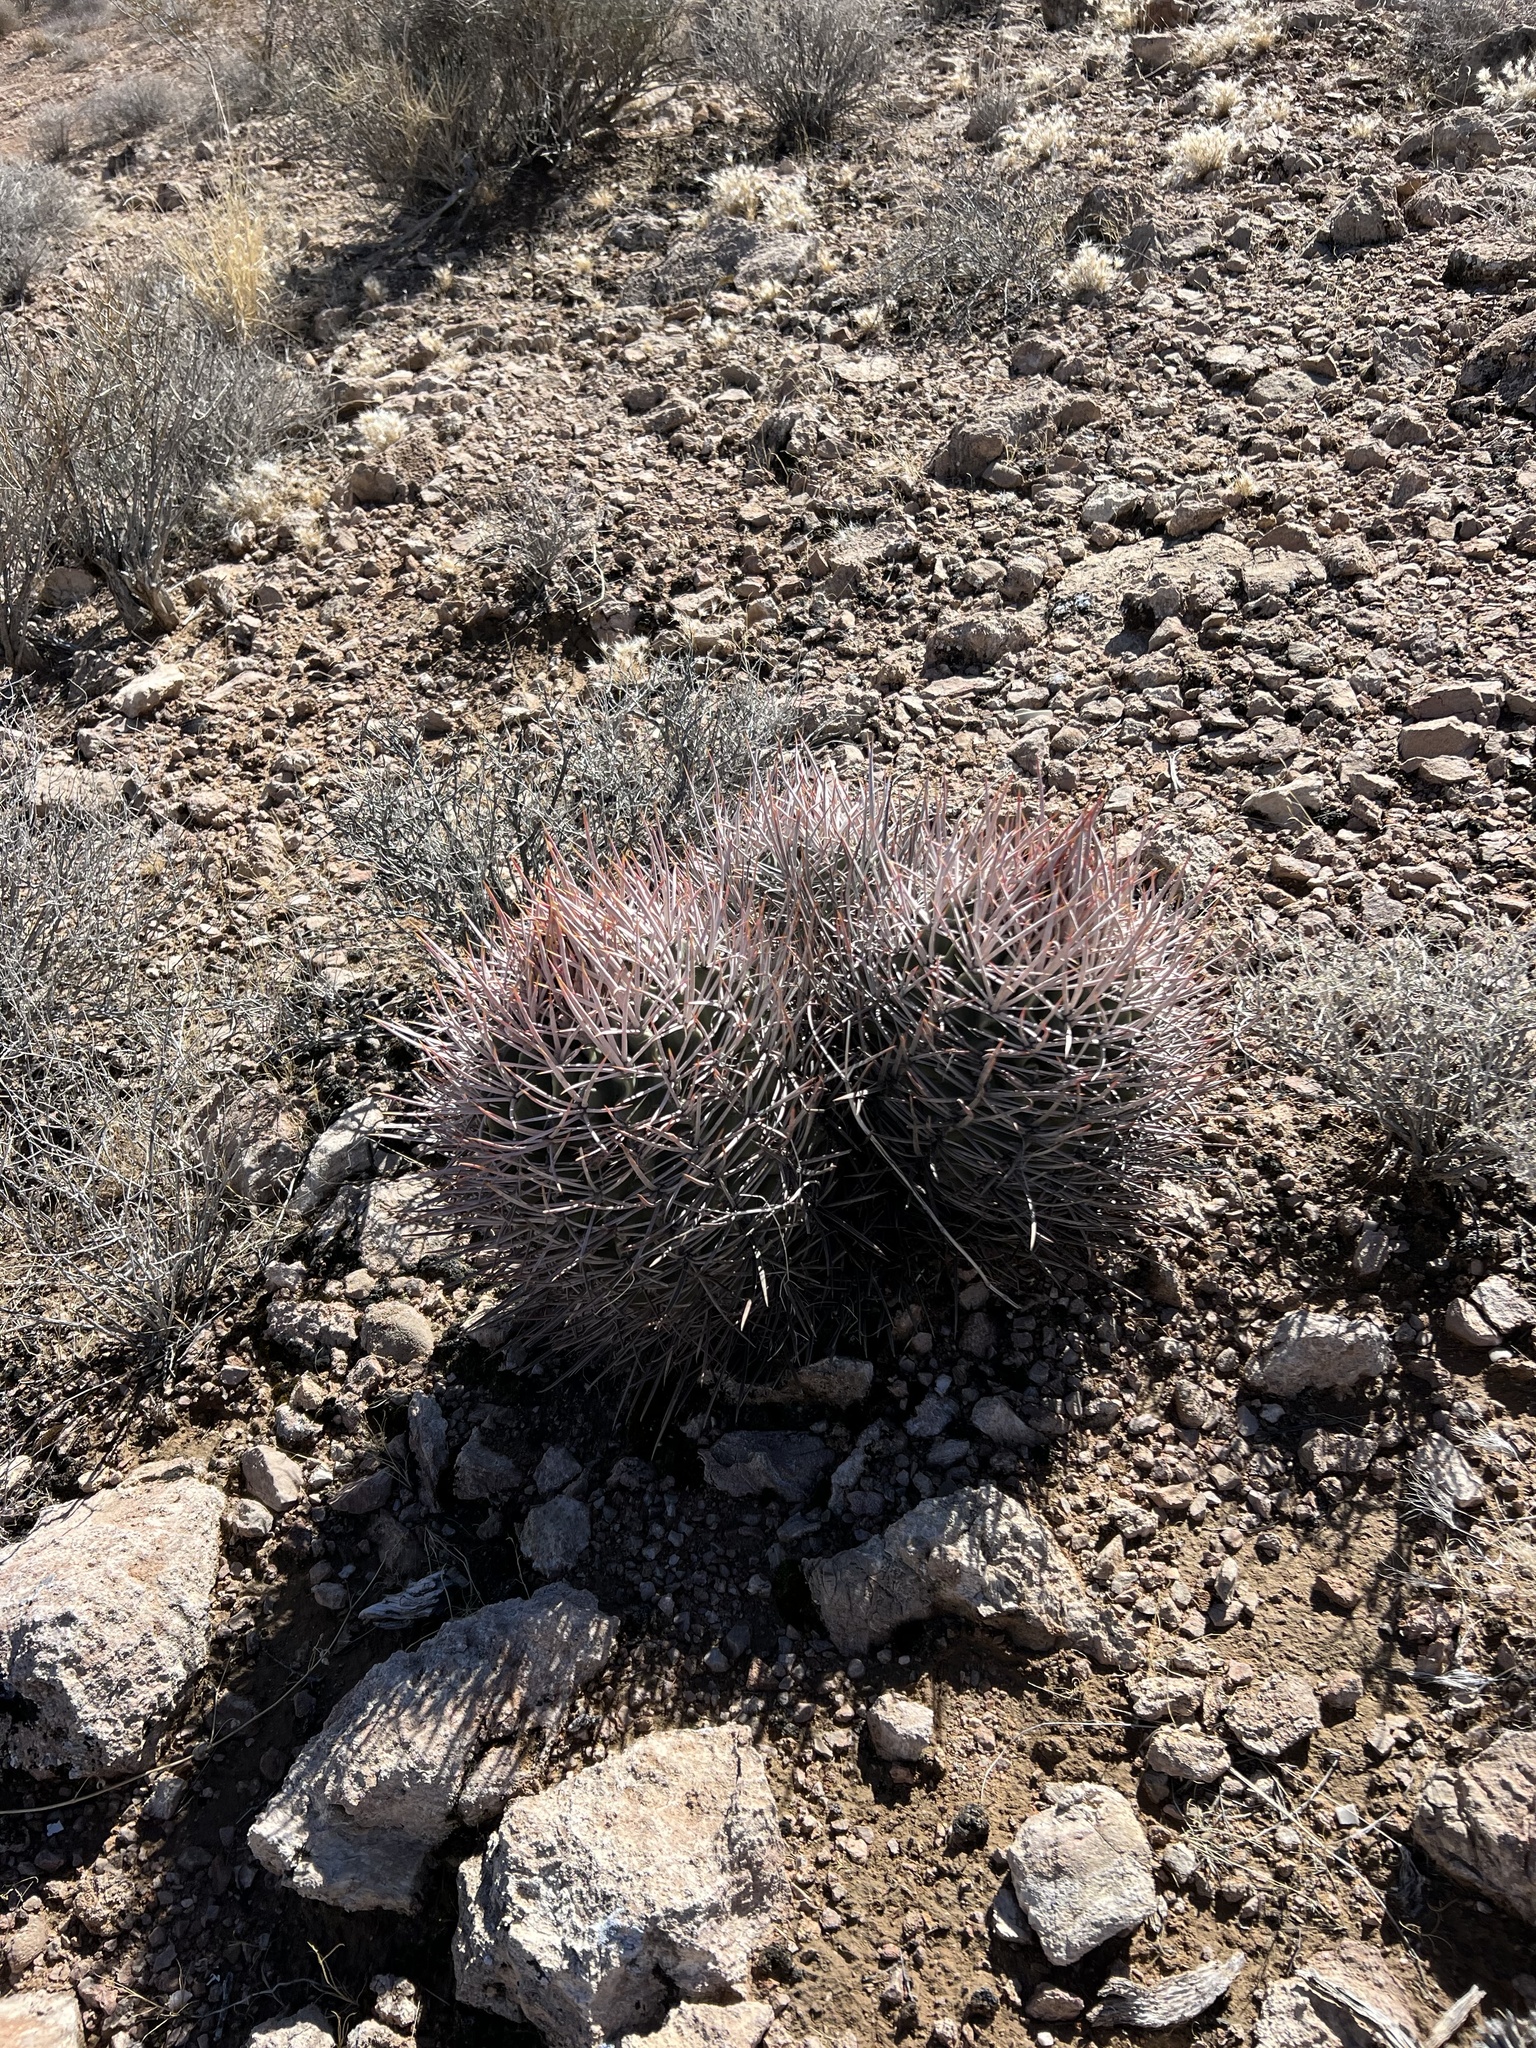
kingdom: Plantae
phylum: Tracheophyta
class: Magnoliopsida
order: Caryophyllales
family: Cactaceae
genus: Echinocactus
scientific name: Echinocactus polycephalus
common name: Cottontop cactus
